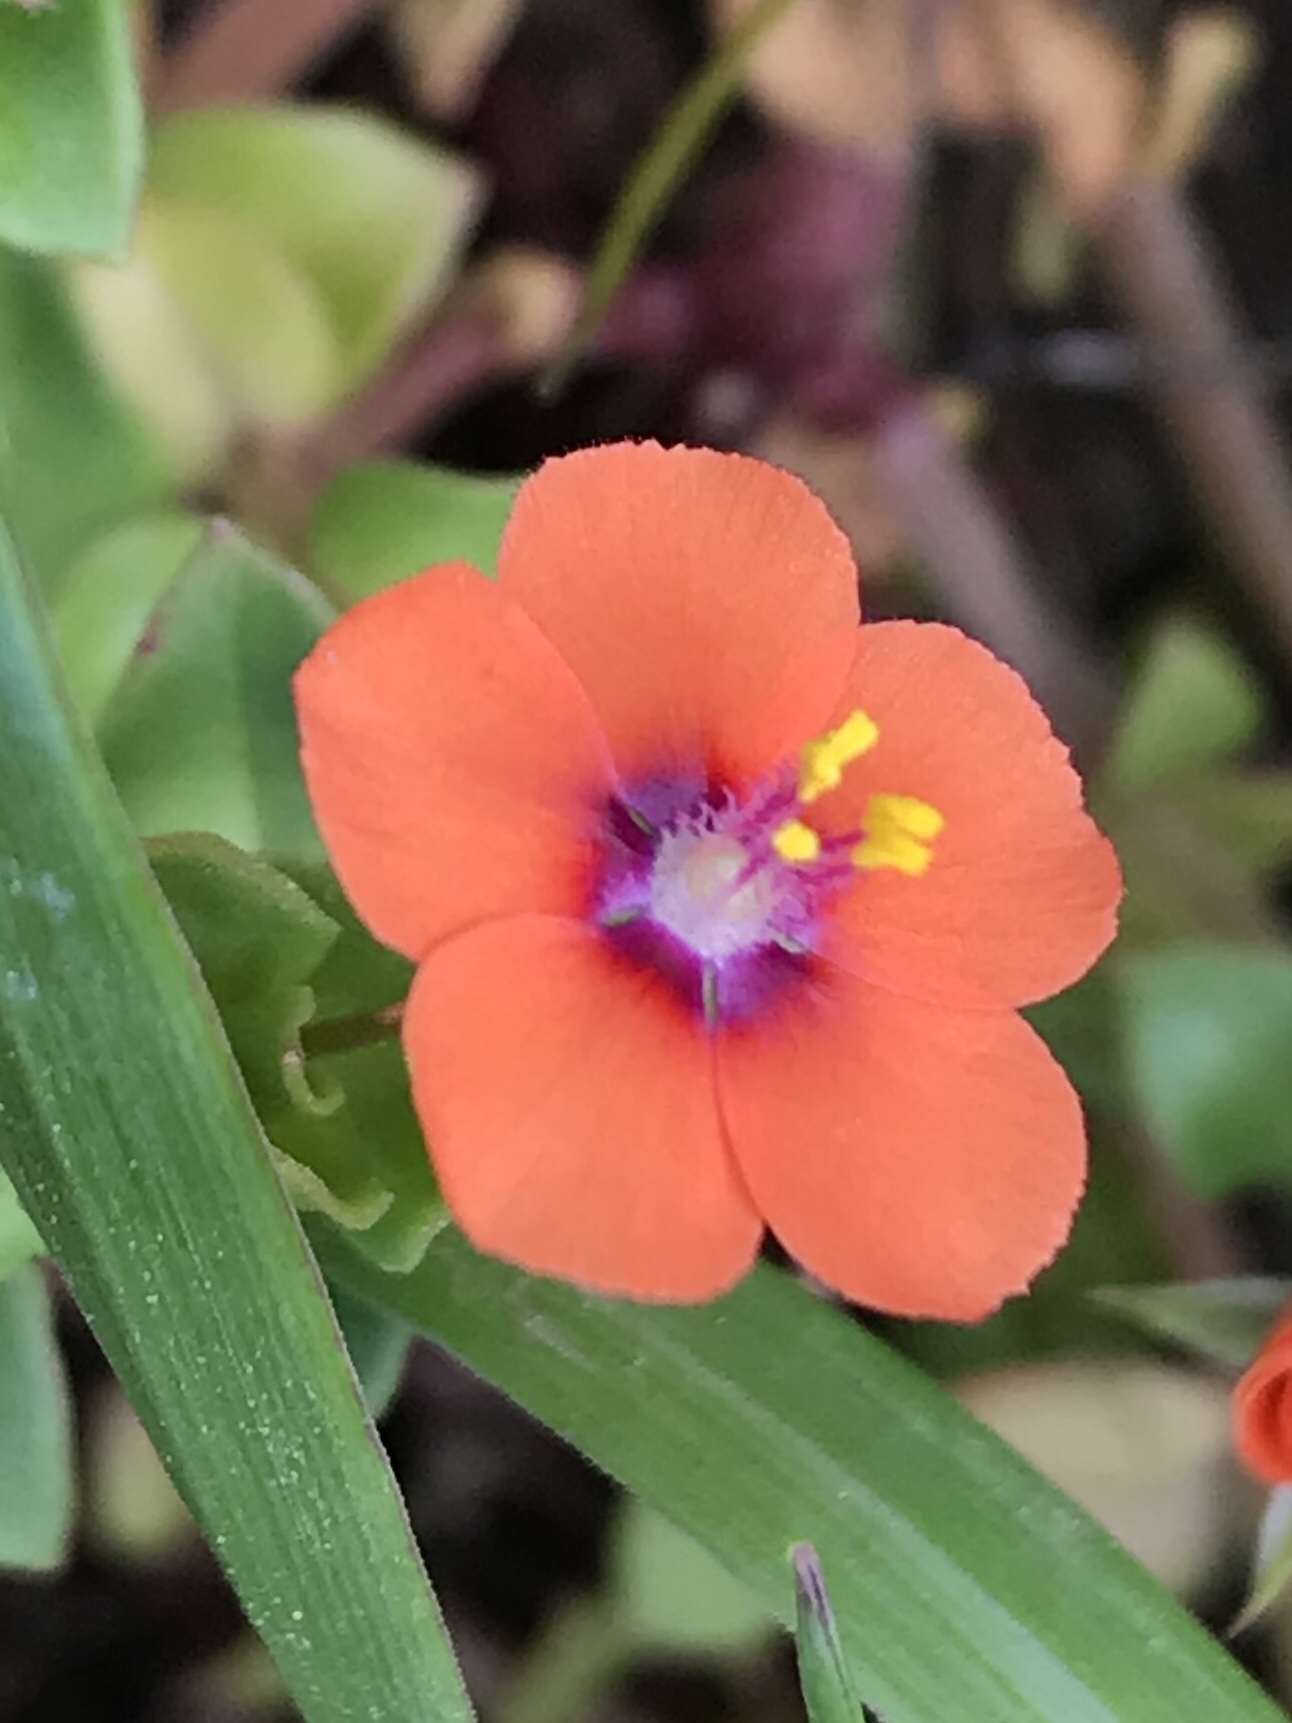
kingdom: Plantae
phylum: Tracheophyta
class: Magnoliopsida
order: Ericales
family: Primulaceae
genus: Lysimachia
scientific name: Lysimachia arvensis
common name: Scarlet pimpernel
